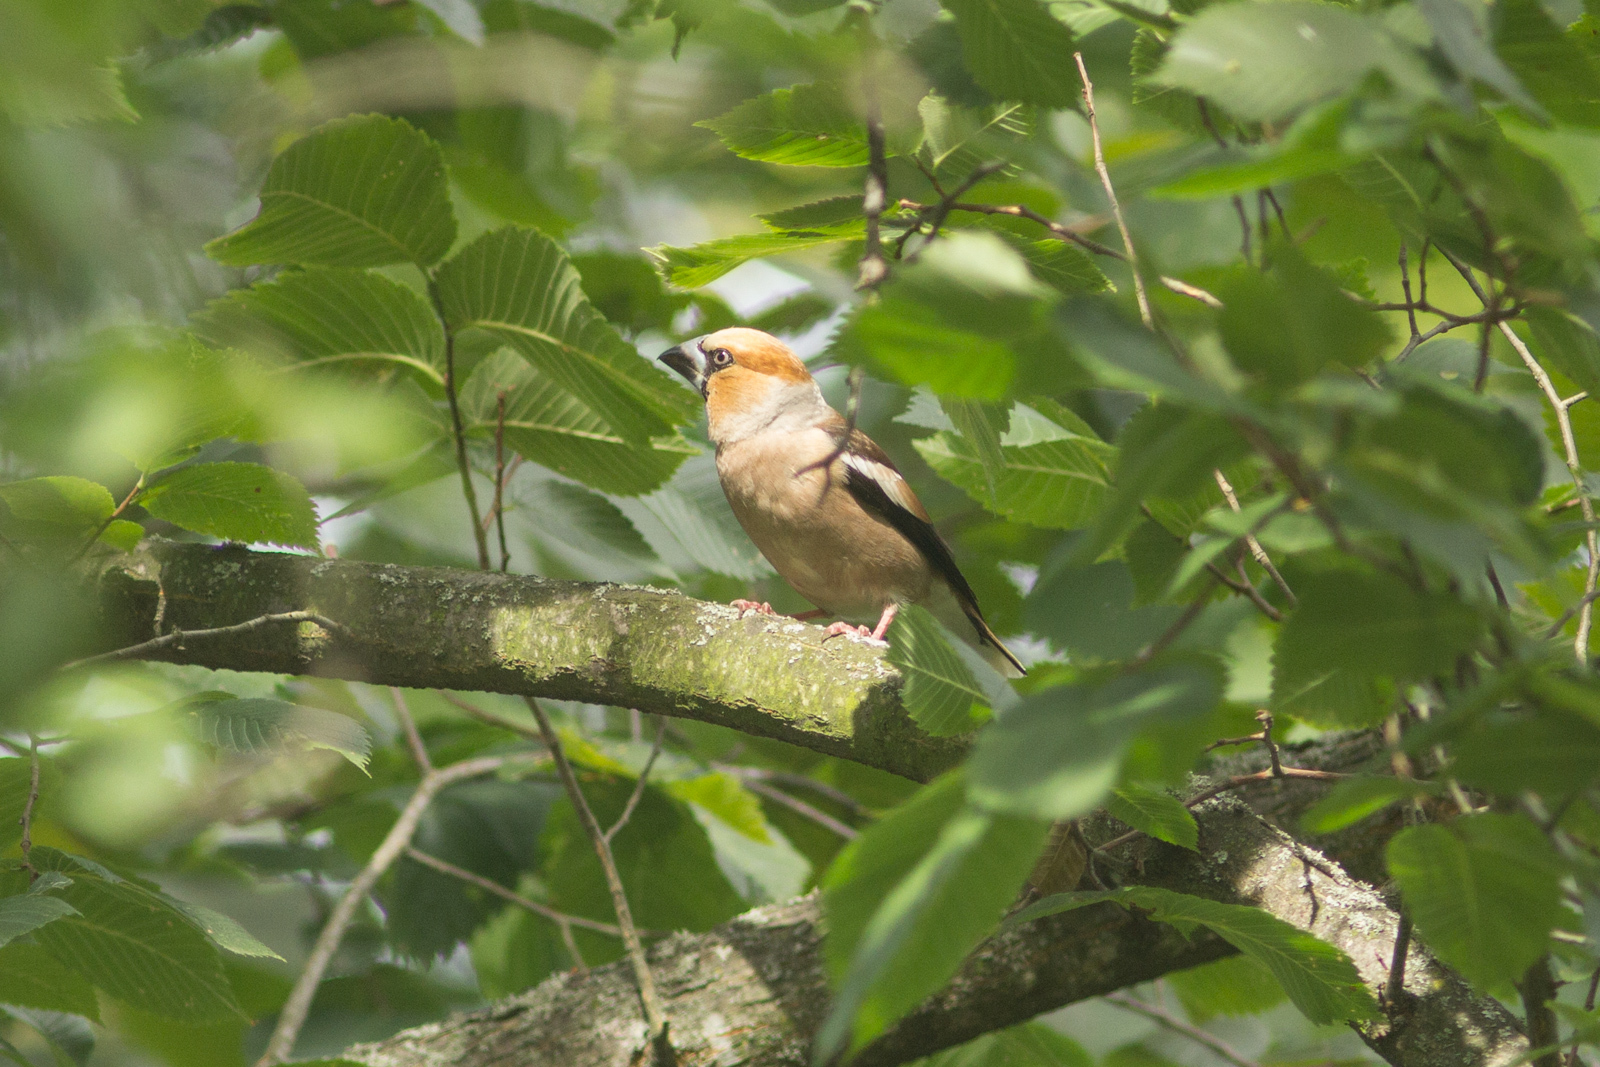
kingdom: Animalia
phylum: Chordata
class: Aves
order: Passeriformes
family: Fringillidae
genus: Coccothraustes
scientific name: Coccothraustes coccothraustes
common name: Hawfinch
